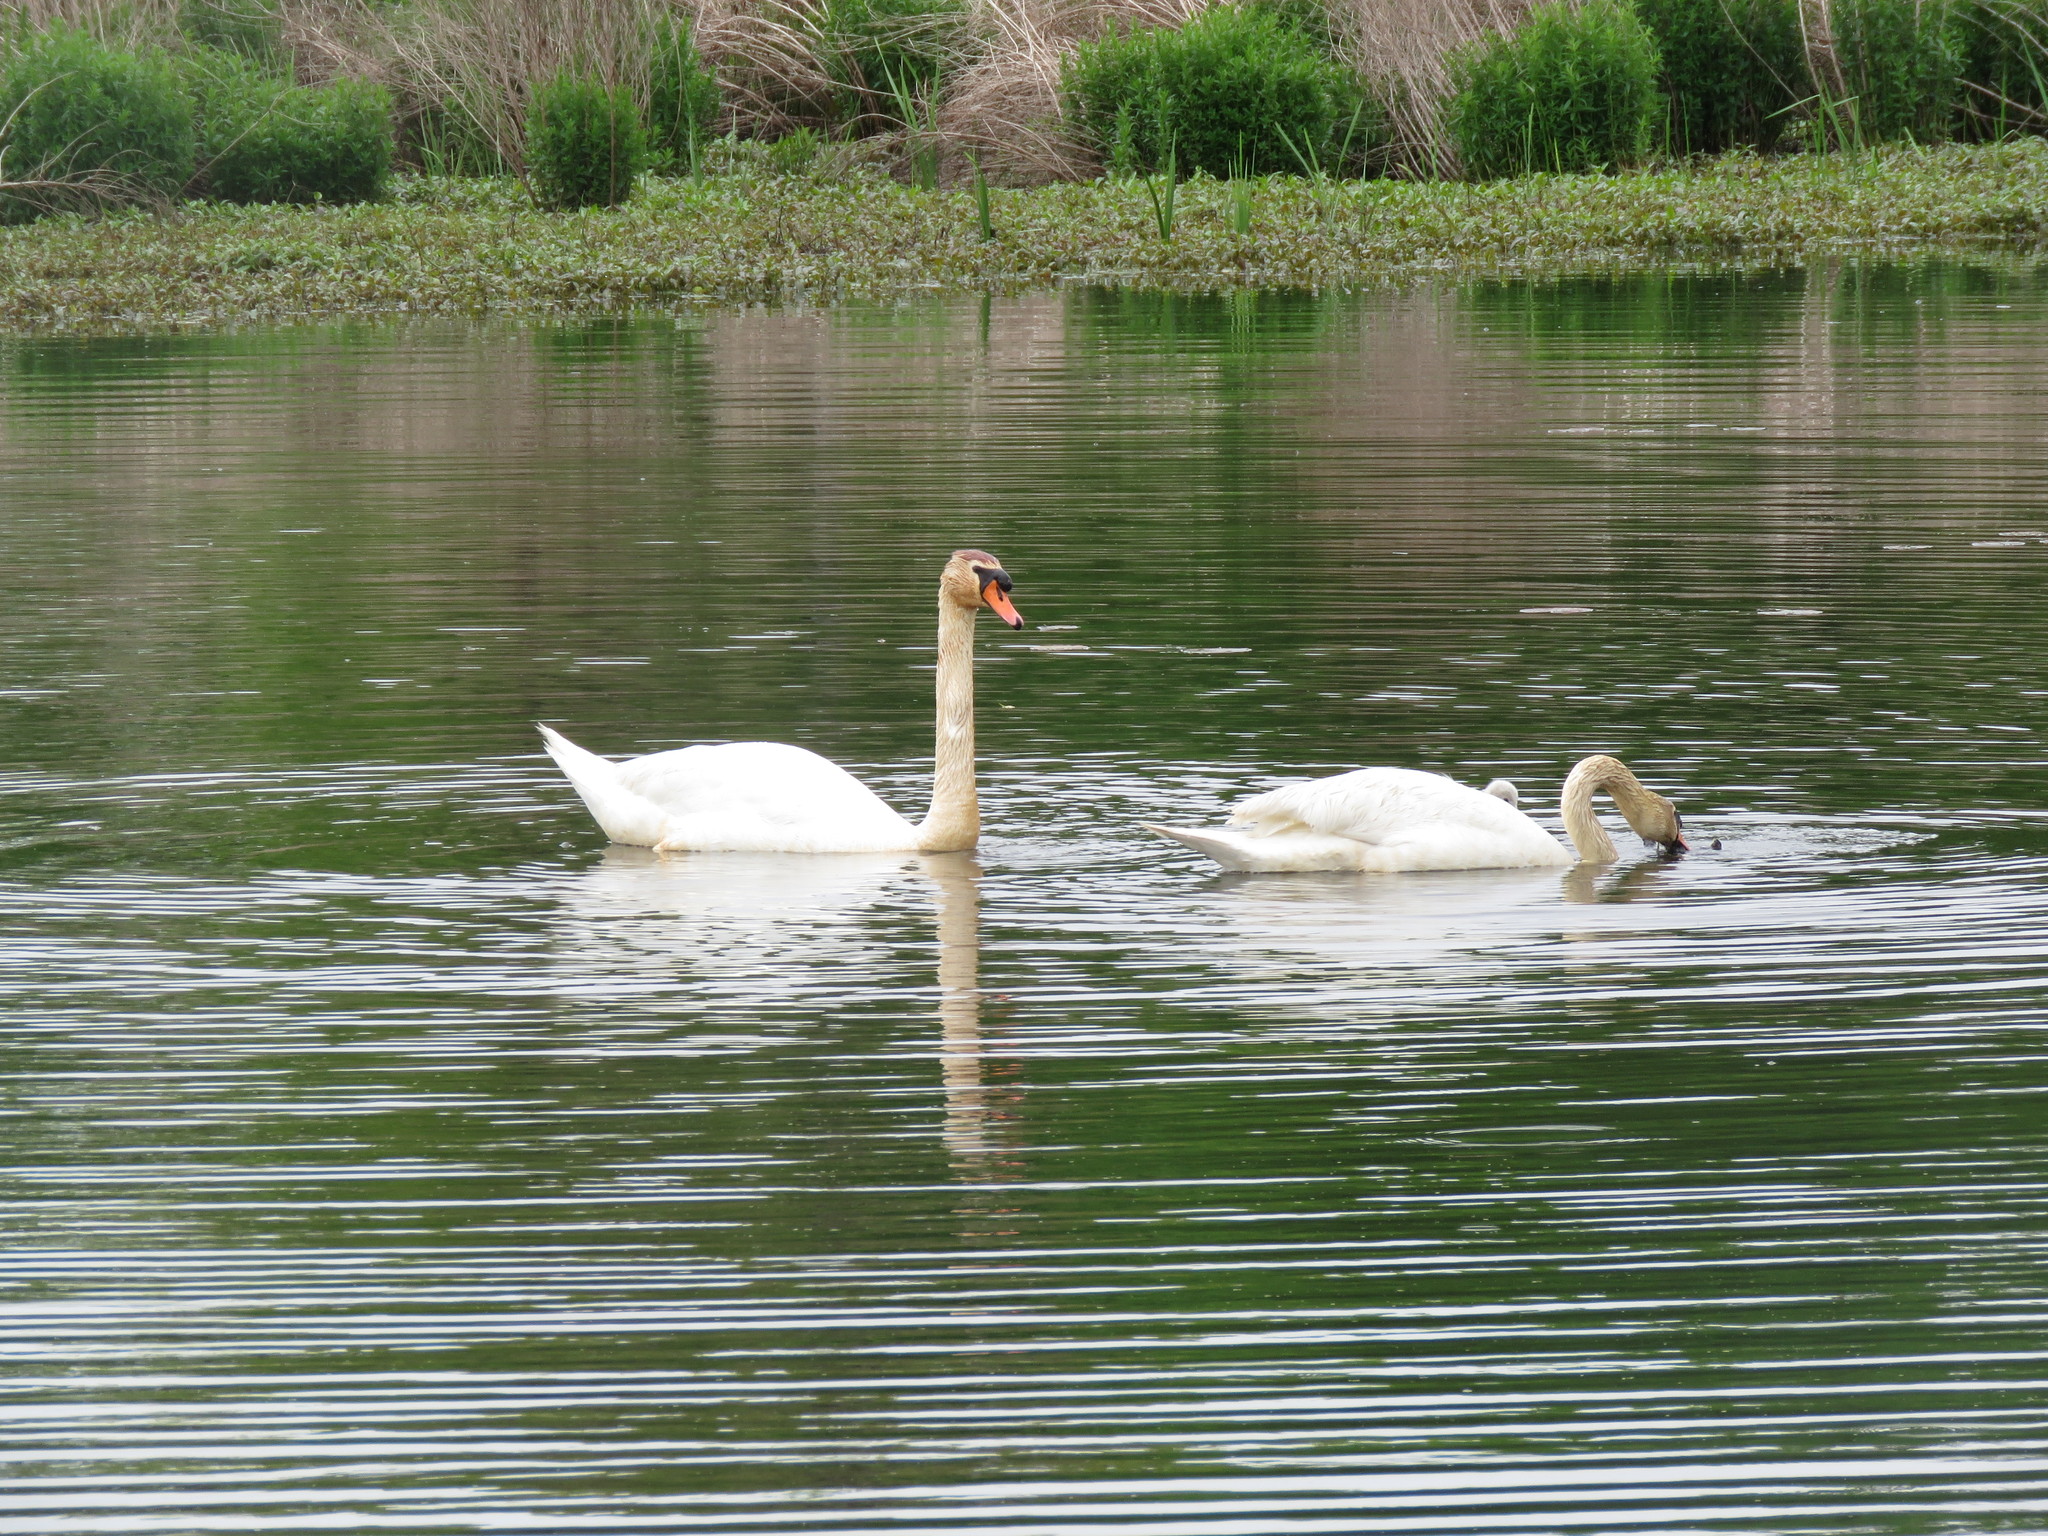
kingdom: Animalia
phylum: Chordata
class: Aves
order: Anseriformes
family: Anatidae
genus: Cygnus
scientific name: Cygnus olor
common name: Mute swan
